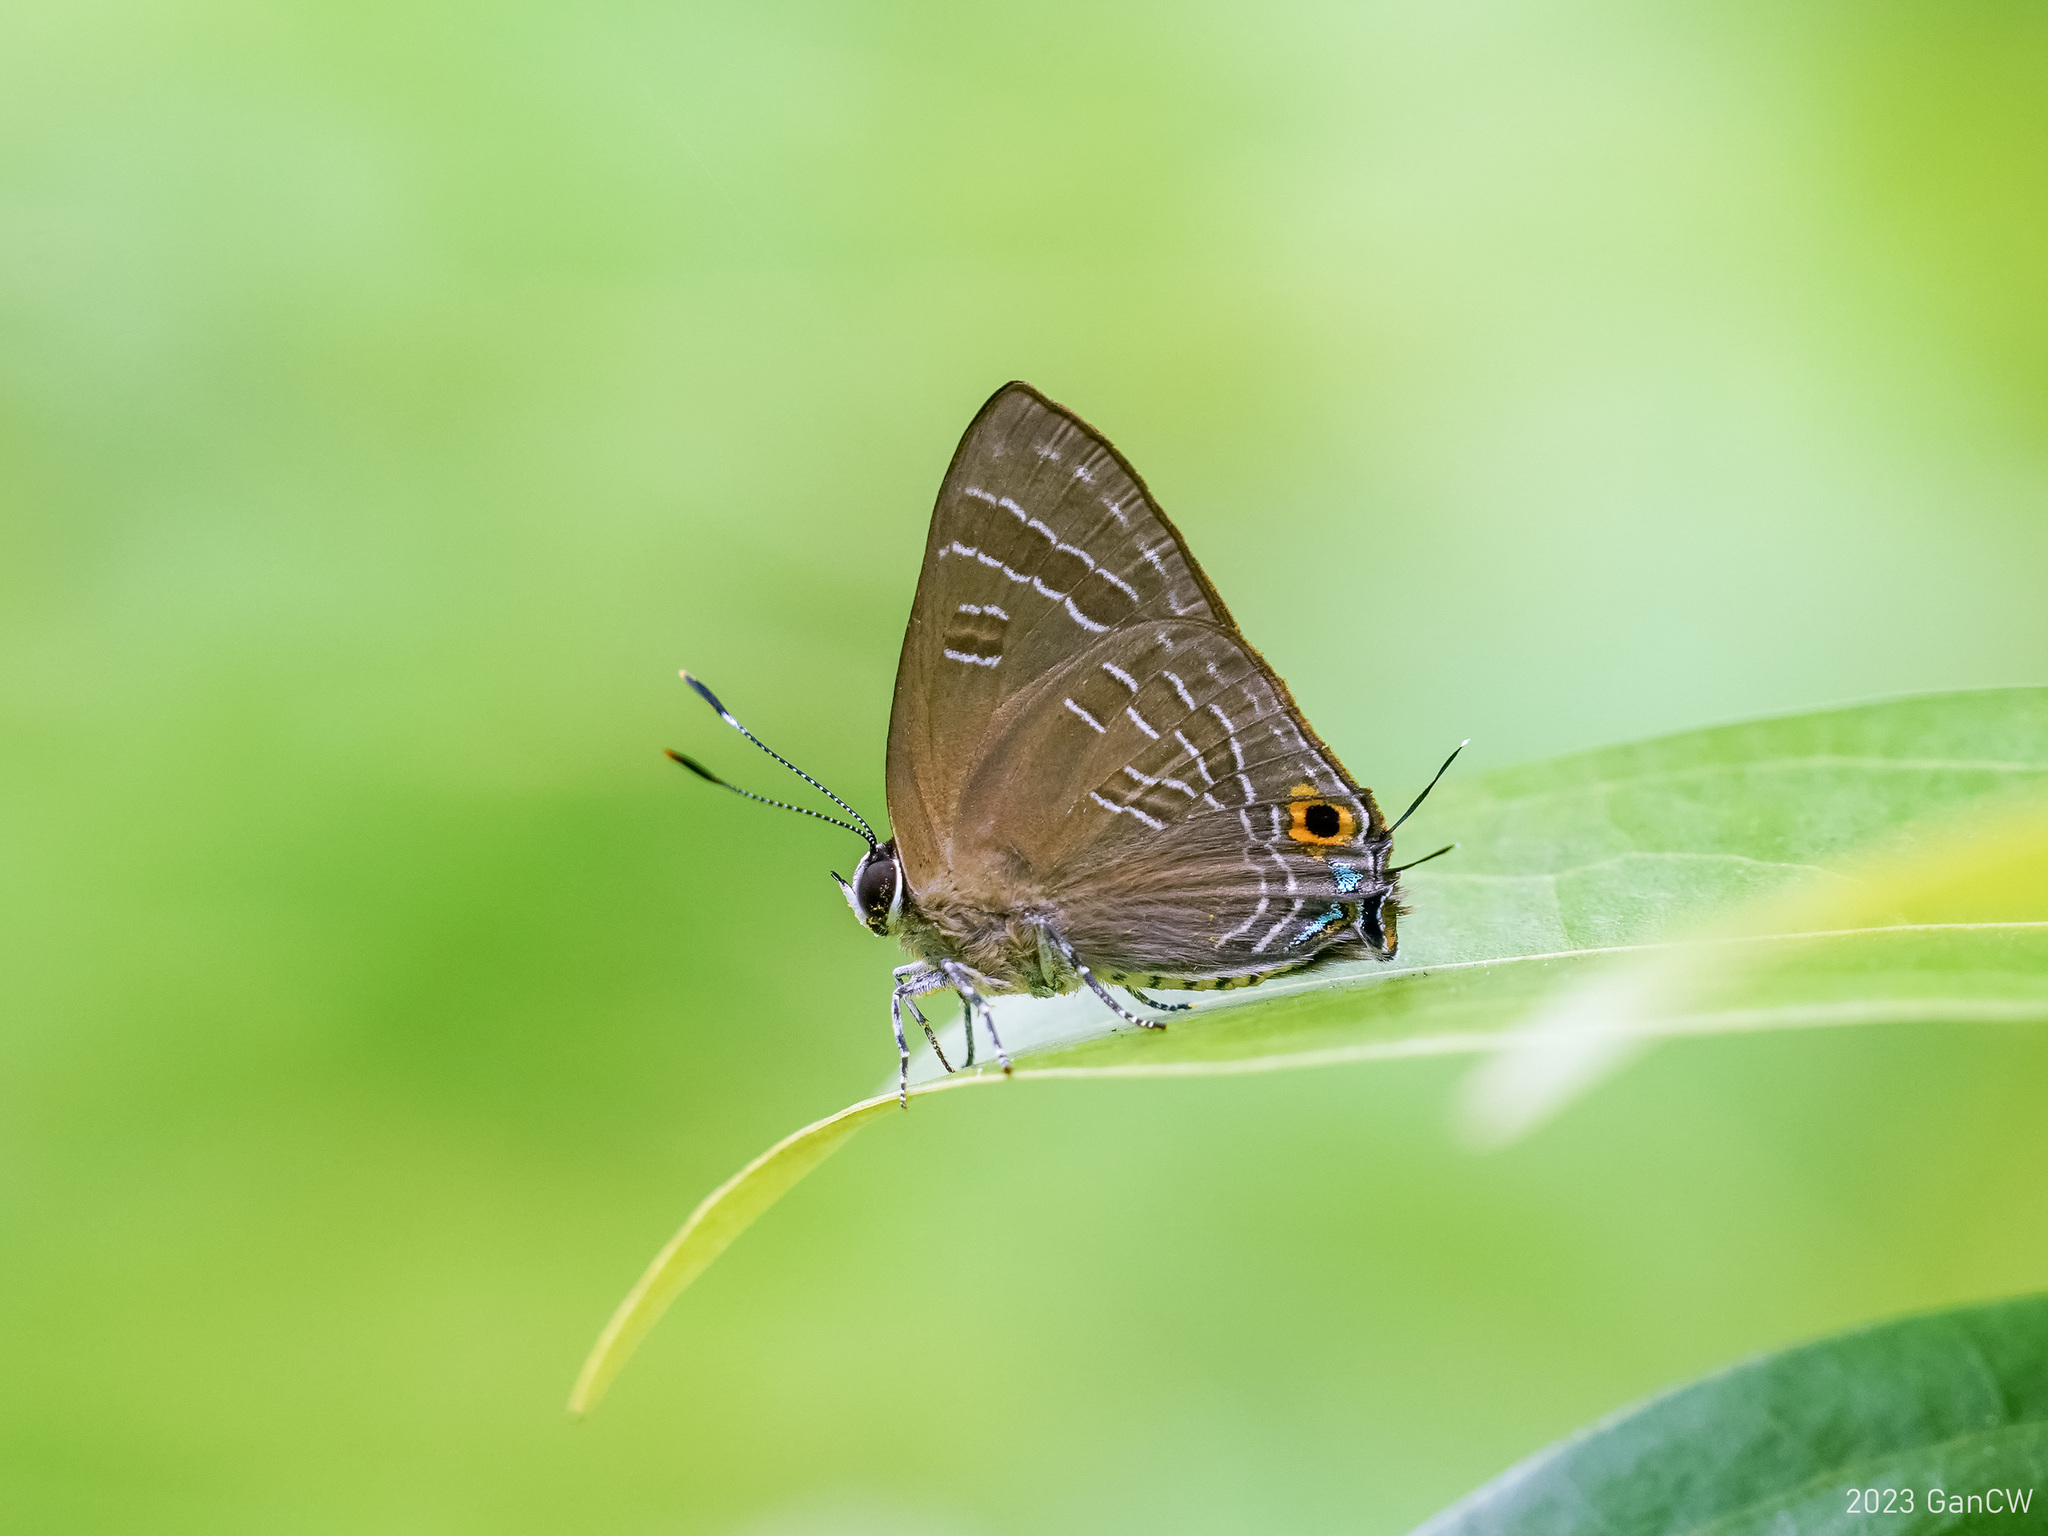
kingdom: Animalia
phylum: Arthropoda
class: Insecta
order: Lepidoptera
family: Lycaenidae
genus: Deudorix
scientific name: Deudorix epijarbas
